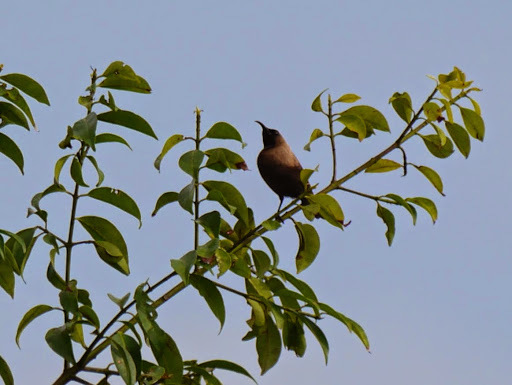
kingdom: Animalia
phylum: Chordata
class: Aves
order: Passeriformes
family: Nectariniidae
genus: Chalcomitra
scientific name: Chalcomitra fuliginosa
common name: Carmelite sunbird
